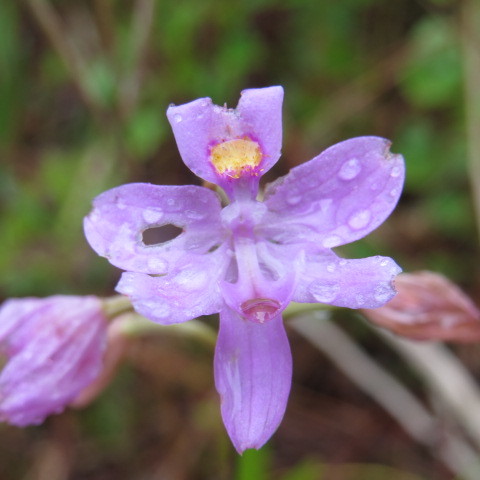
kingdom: Plantae
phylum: Tracheophyta
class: Liliopsida
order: Asparagales
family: Orchidaceae
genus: Calopogon
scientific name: Calopogon barbatus
